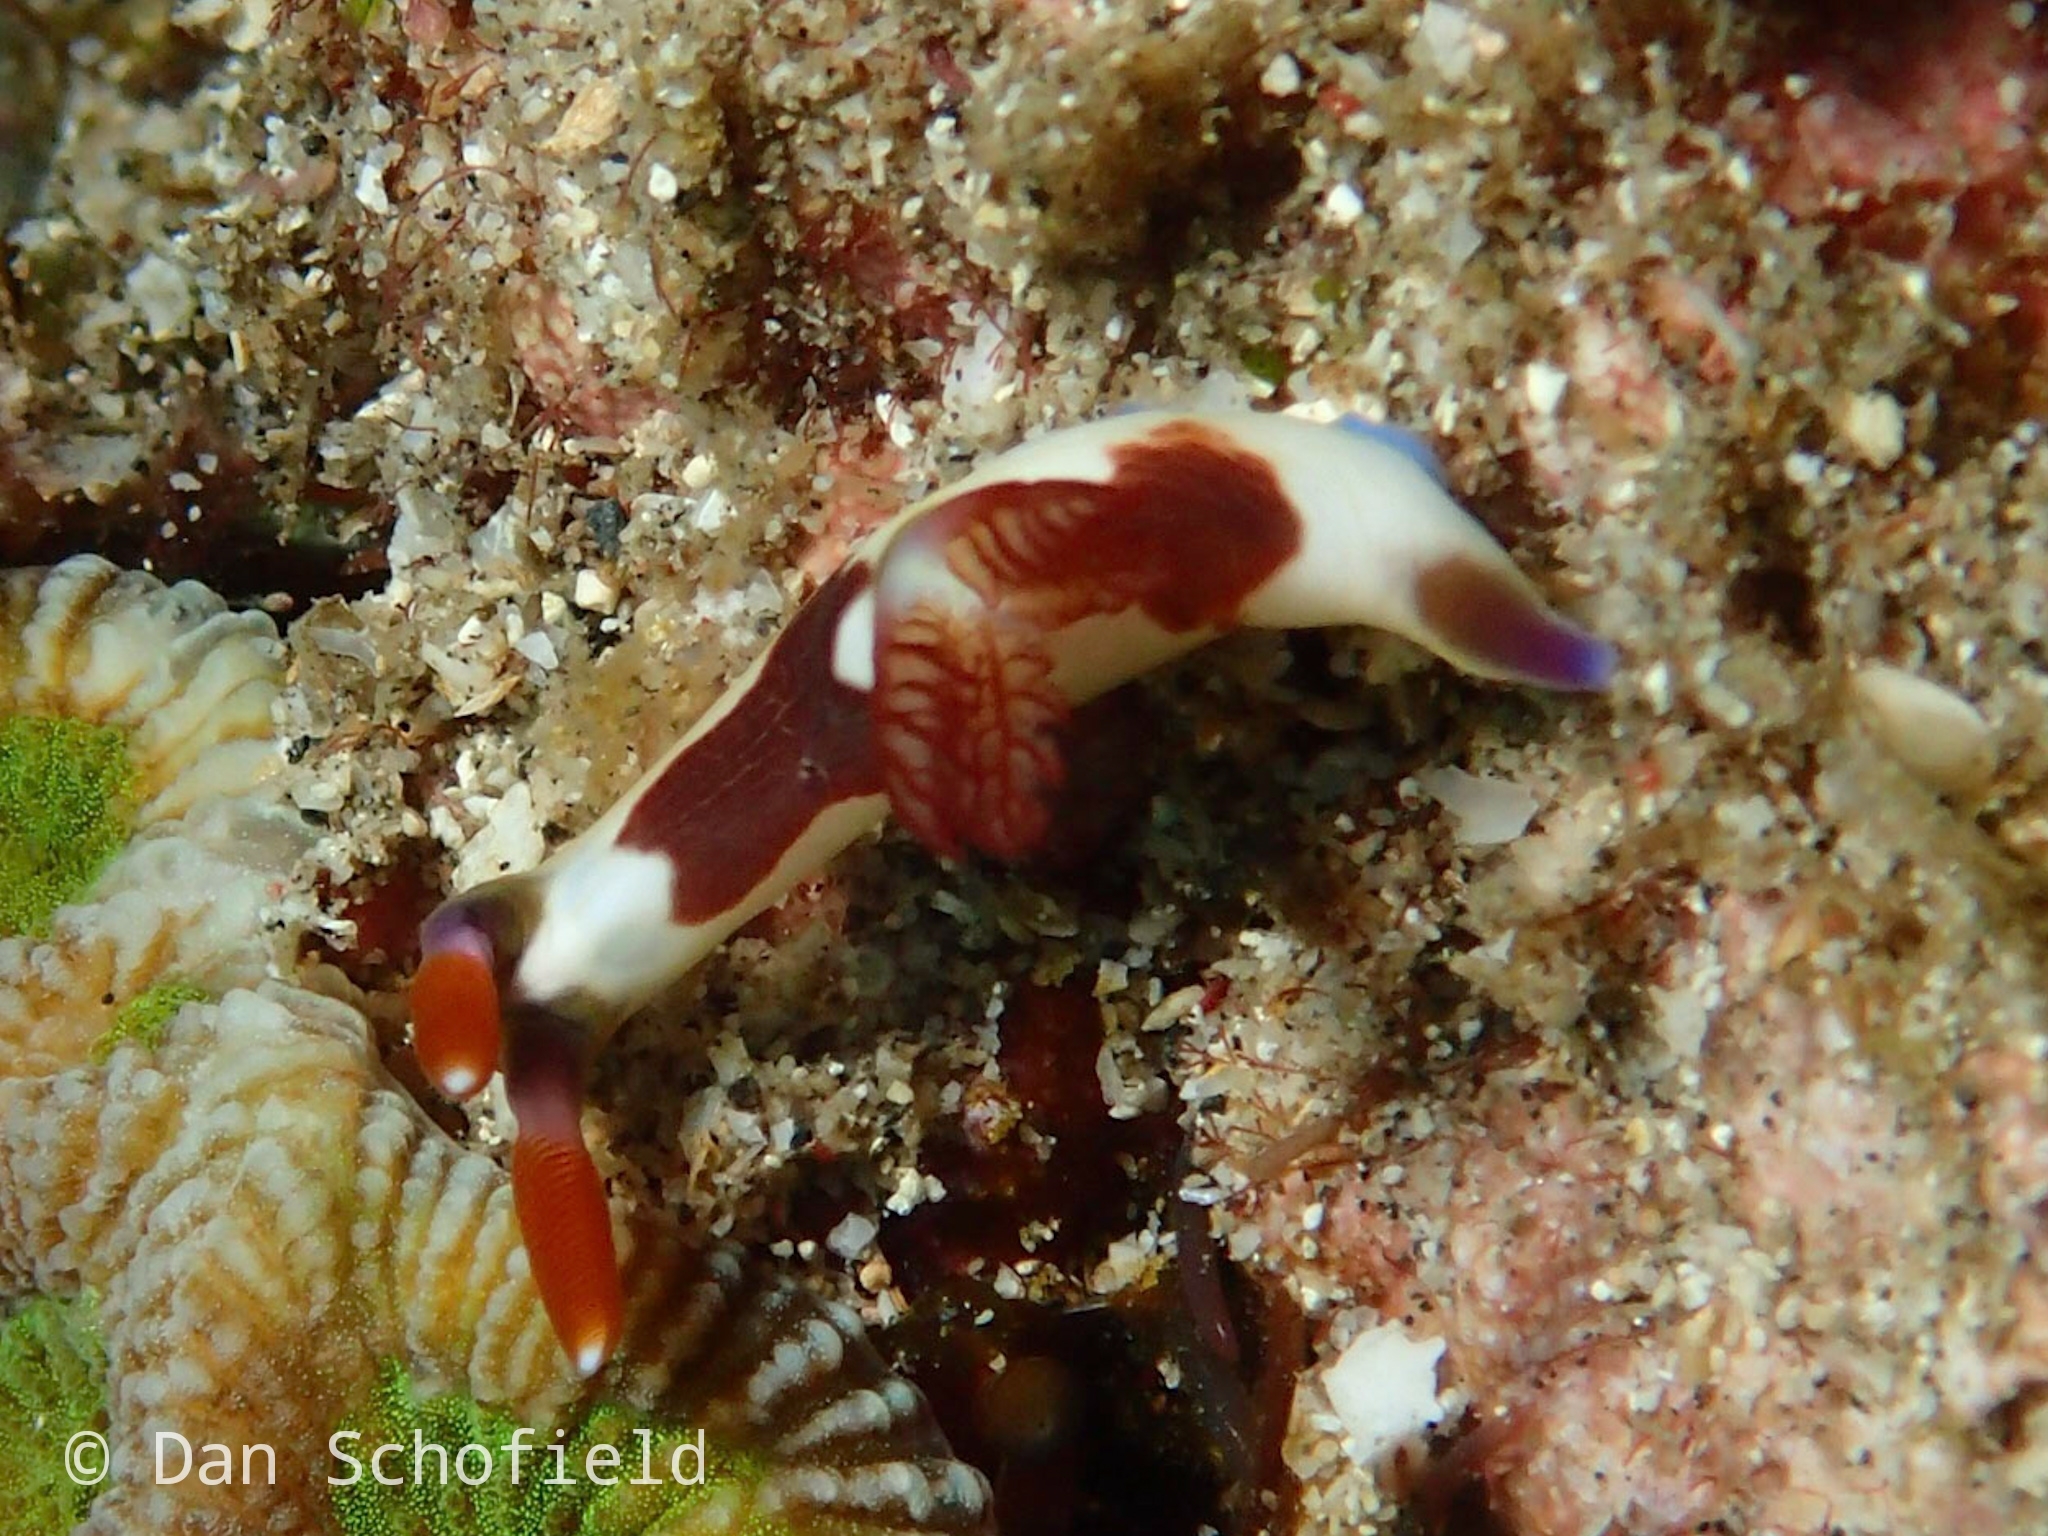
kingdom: Animalia
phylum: Mollusca
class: Gastropoda
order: Nudibranchia
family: Polyceridae
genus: Nembrotha
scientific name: Nembrotha chamberlaini
